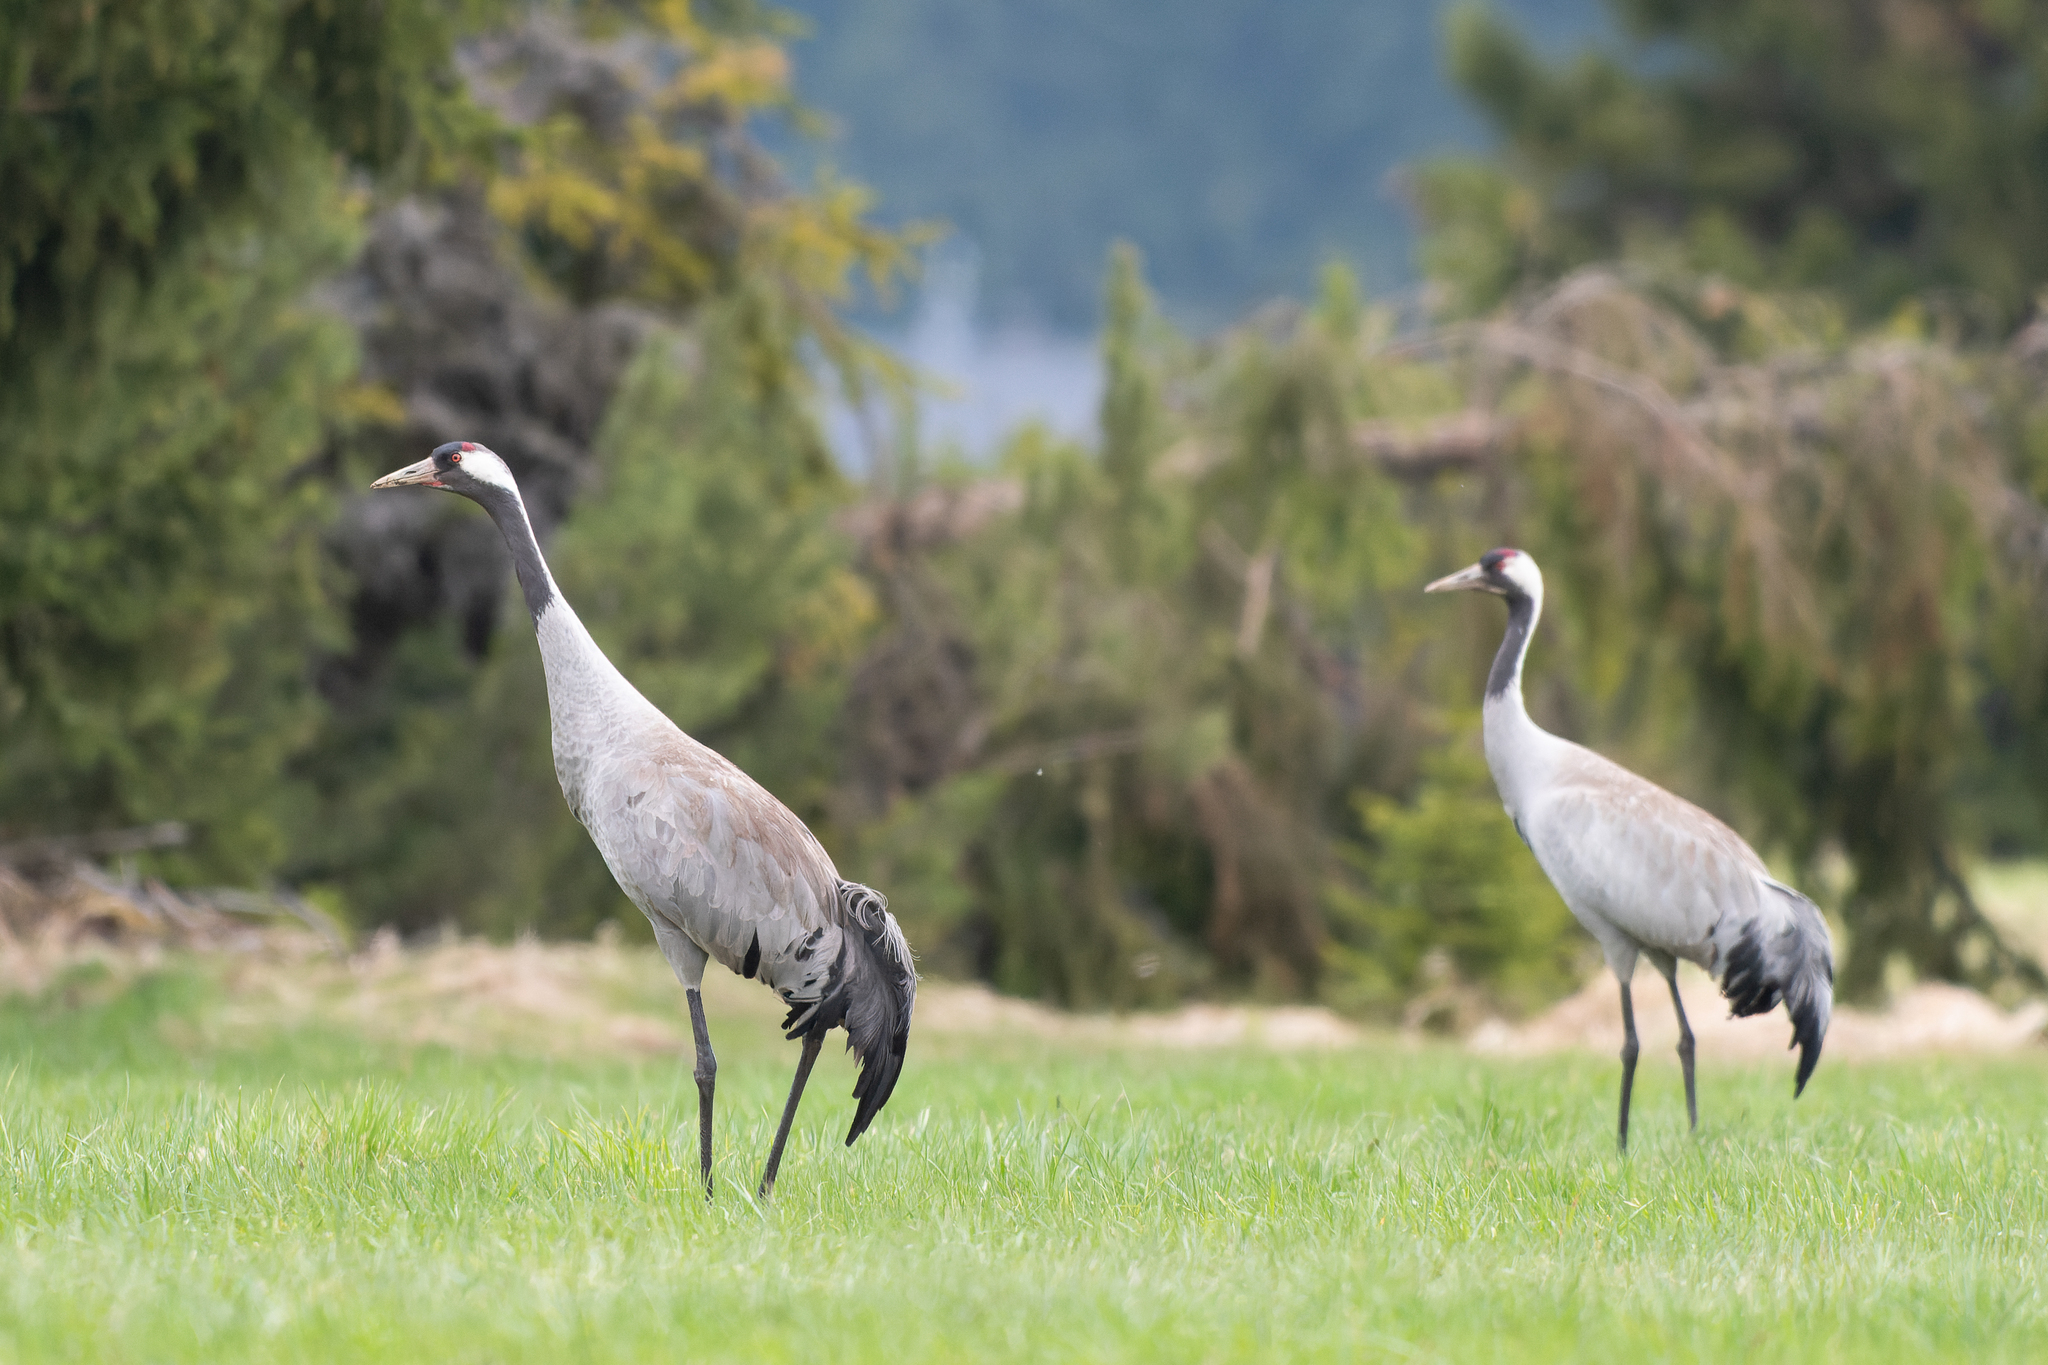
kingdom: Animalia
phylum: Chordata
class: Aves
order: Gruiformes
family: Gruidae
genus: Grus
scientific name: Grus grus
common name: Common crane
